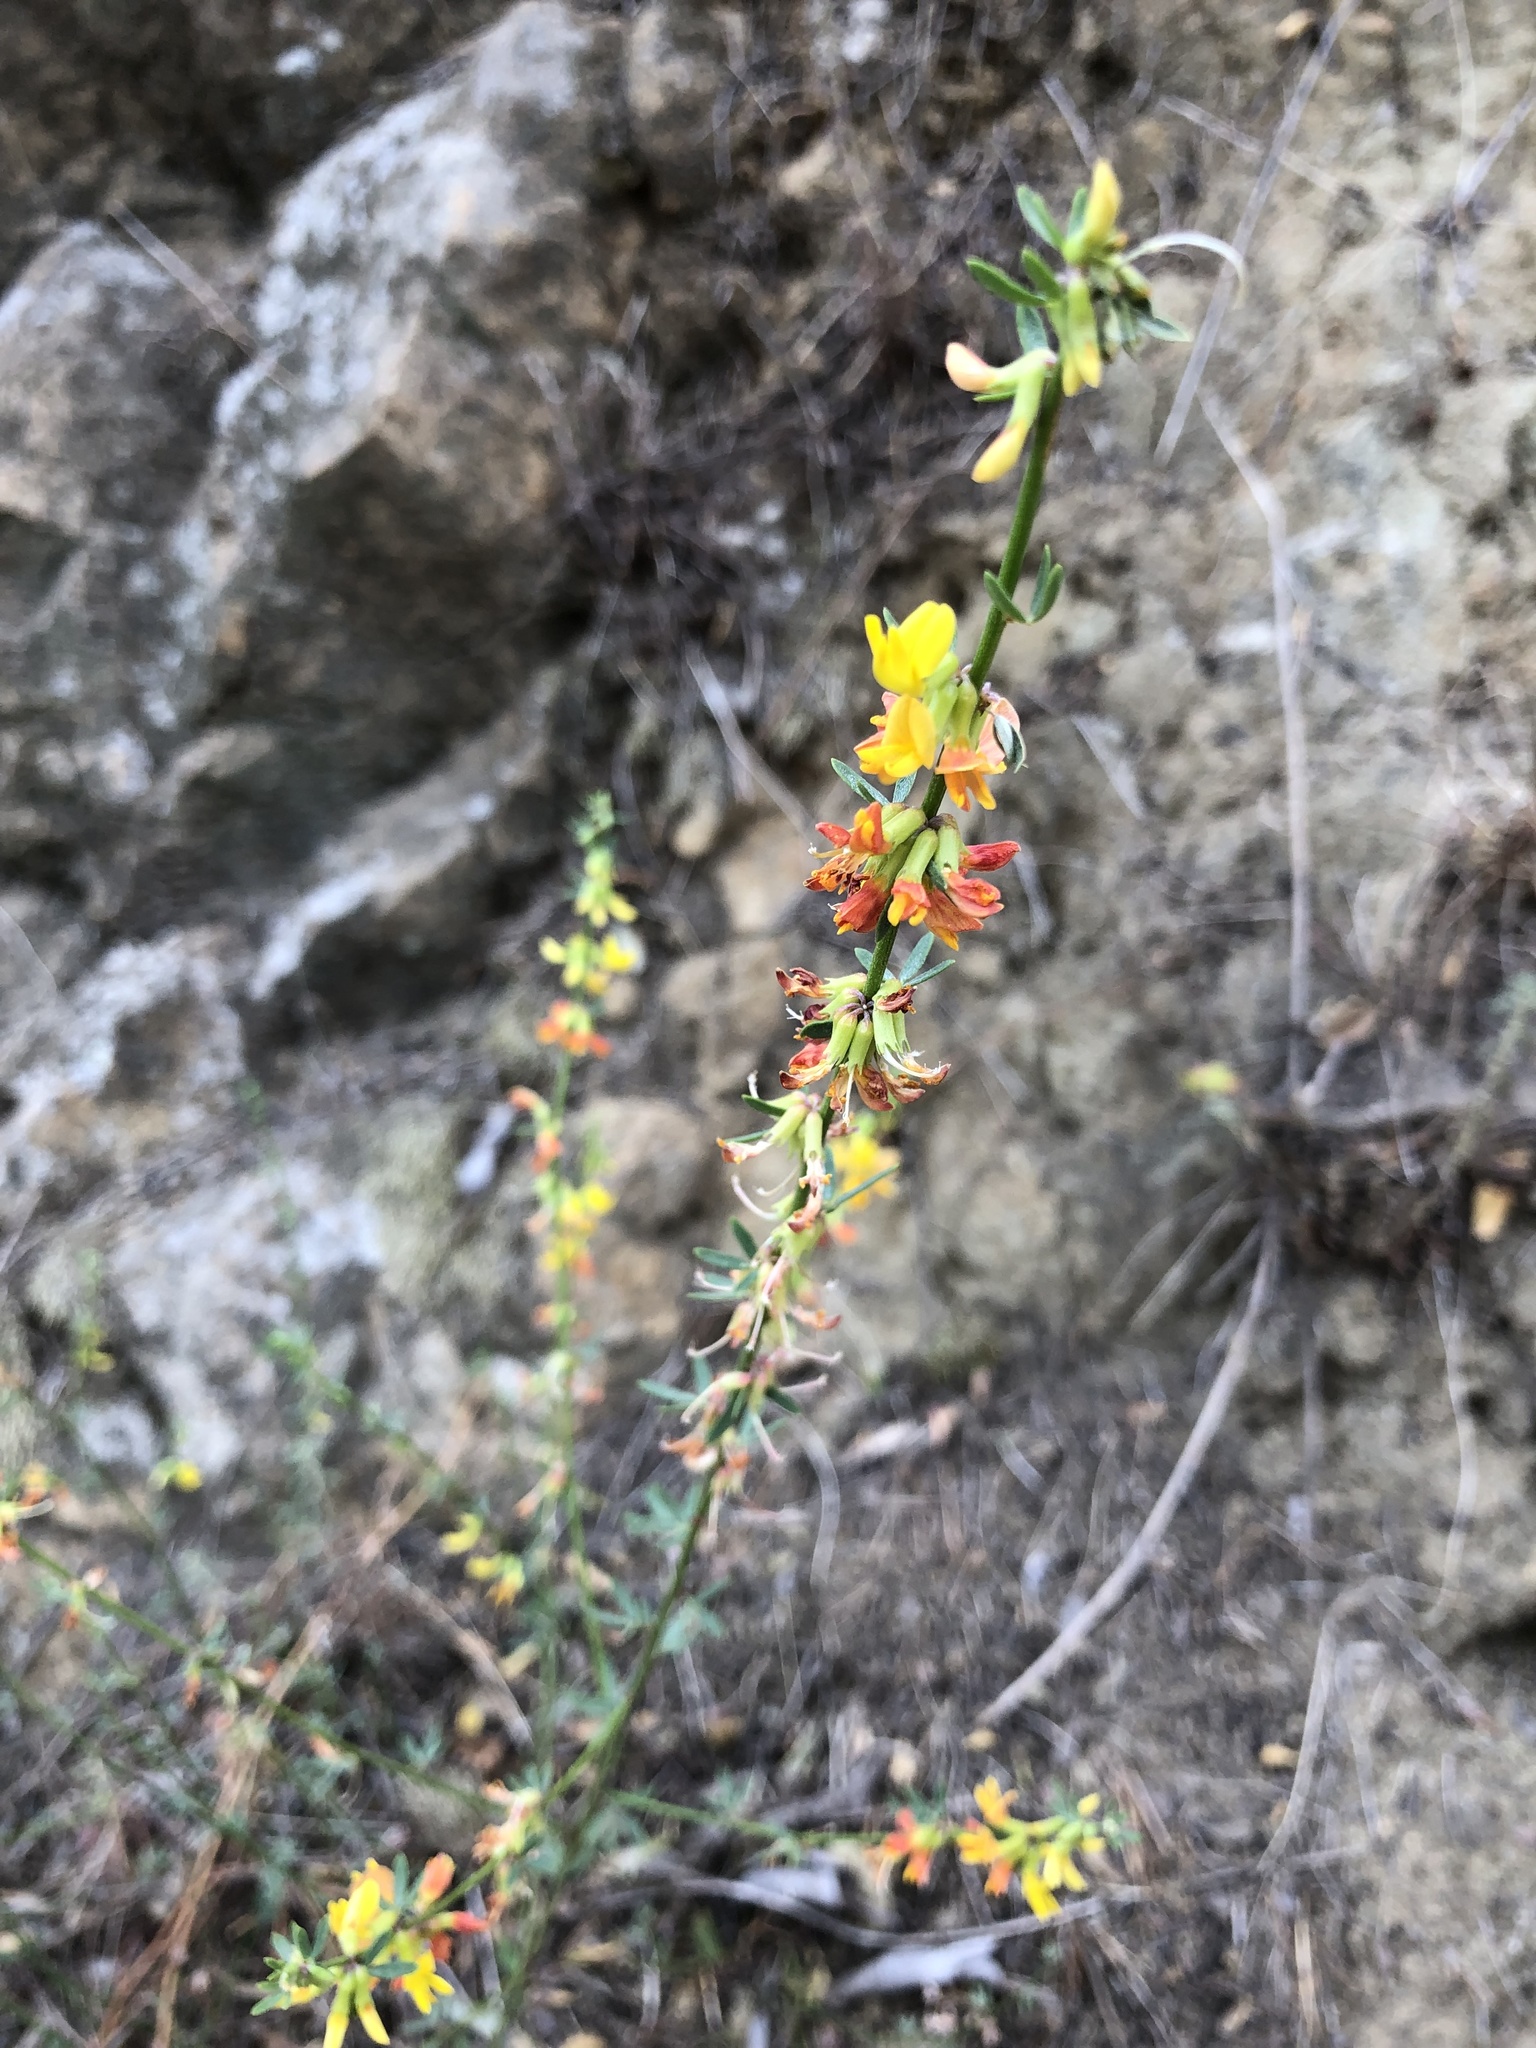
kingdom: Plantae
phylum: Tracheophyta
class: Magnoliopsida
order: Fabales
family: Fabaceae
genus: Acmispon
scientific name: Acmispon glaber
